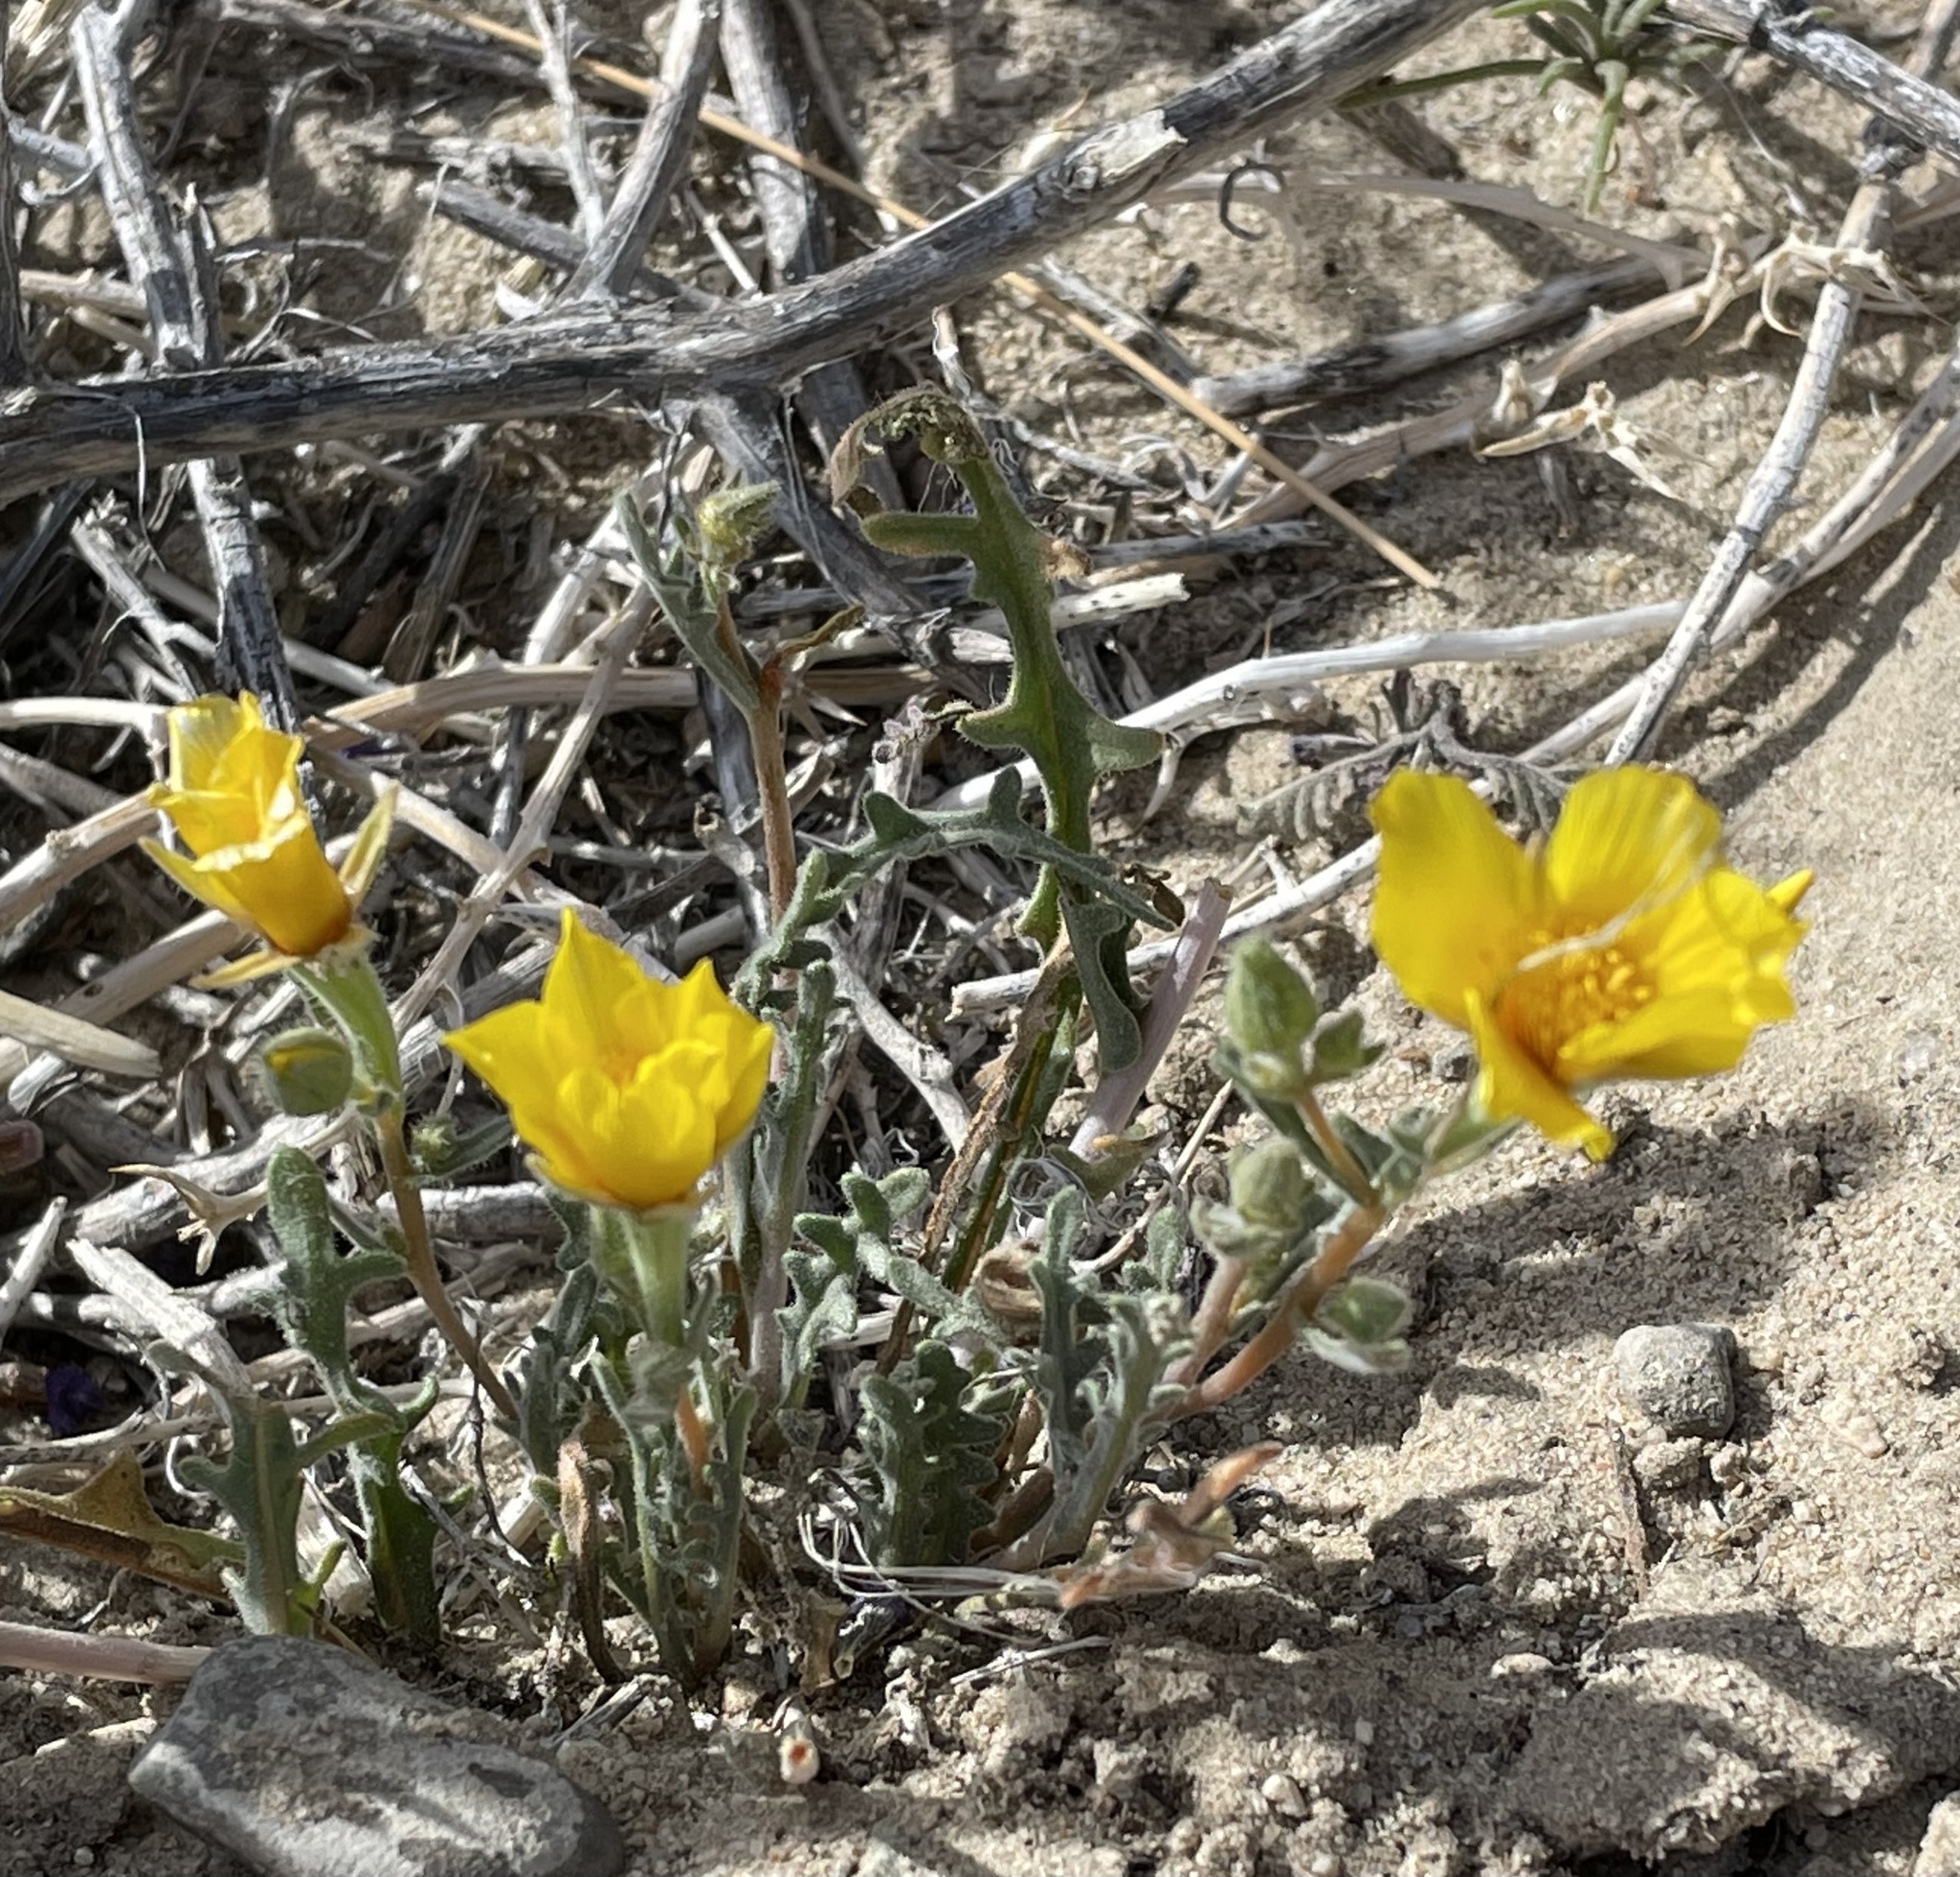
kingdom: Plantae
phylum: Tracheophyta
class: Magnoliopsida
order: Cornales
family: Loasaceae
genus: Mentzelia
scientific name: Mentzelia nitens
